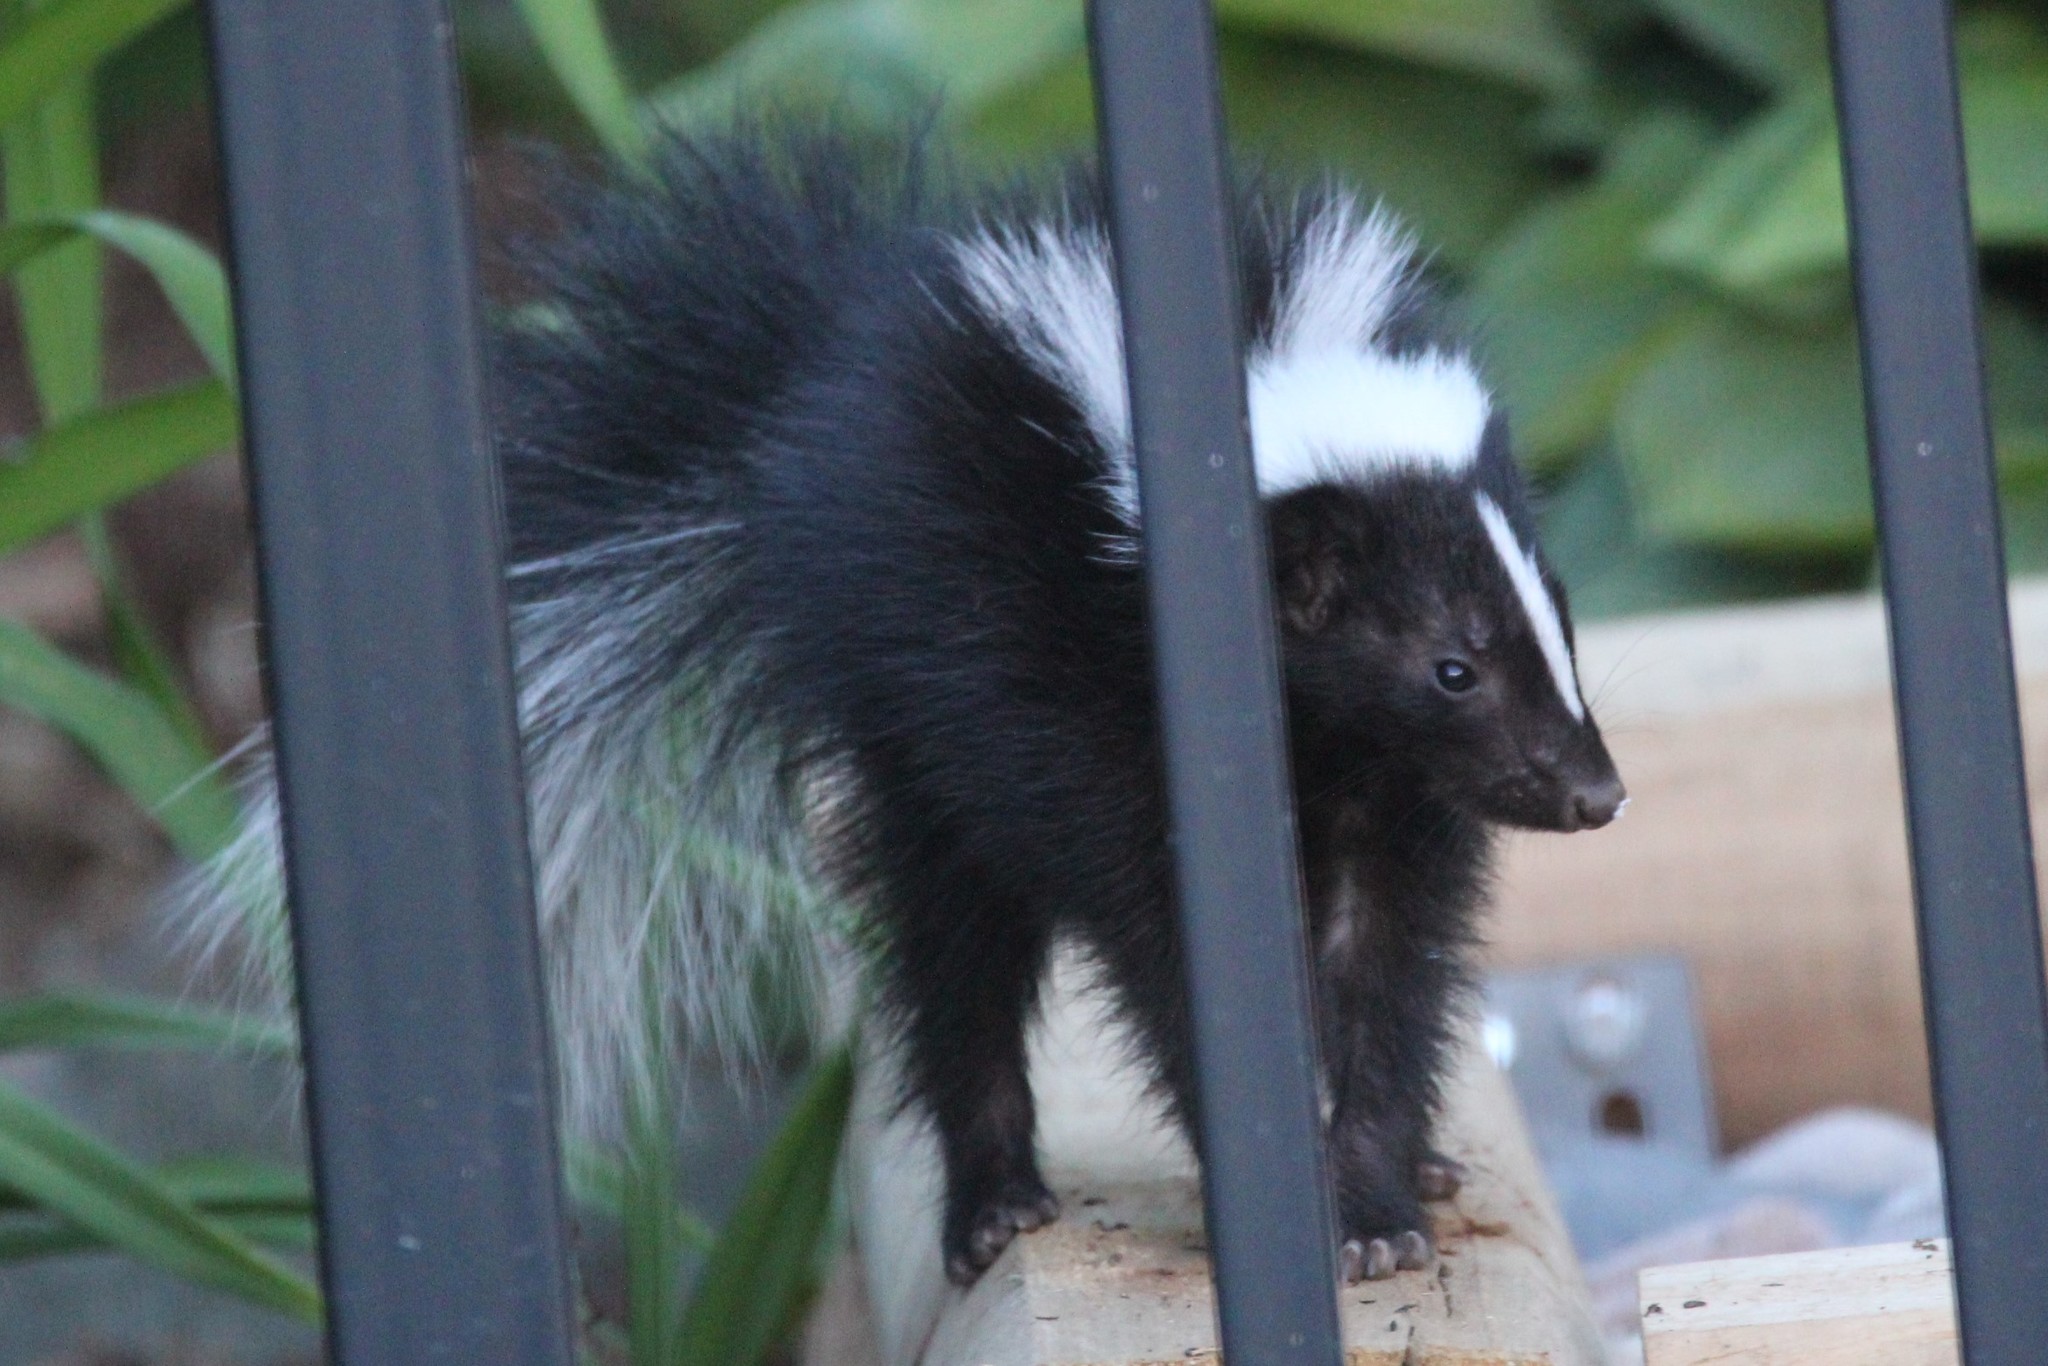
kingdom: Animalia
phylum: Chordata
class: Mammalia
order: Carnivora
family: Mephitidae
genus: Mephitis
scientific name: Mephitis mephitis
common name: Striped skunk
